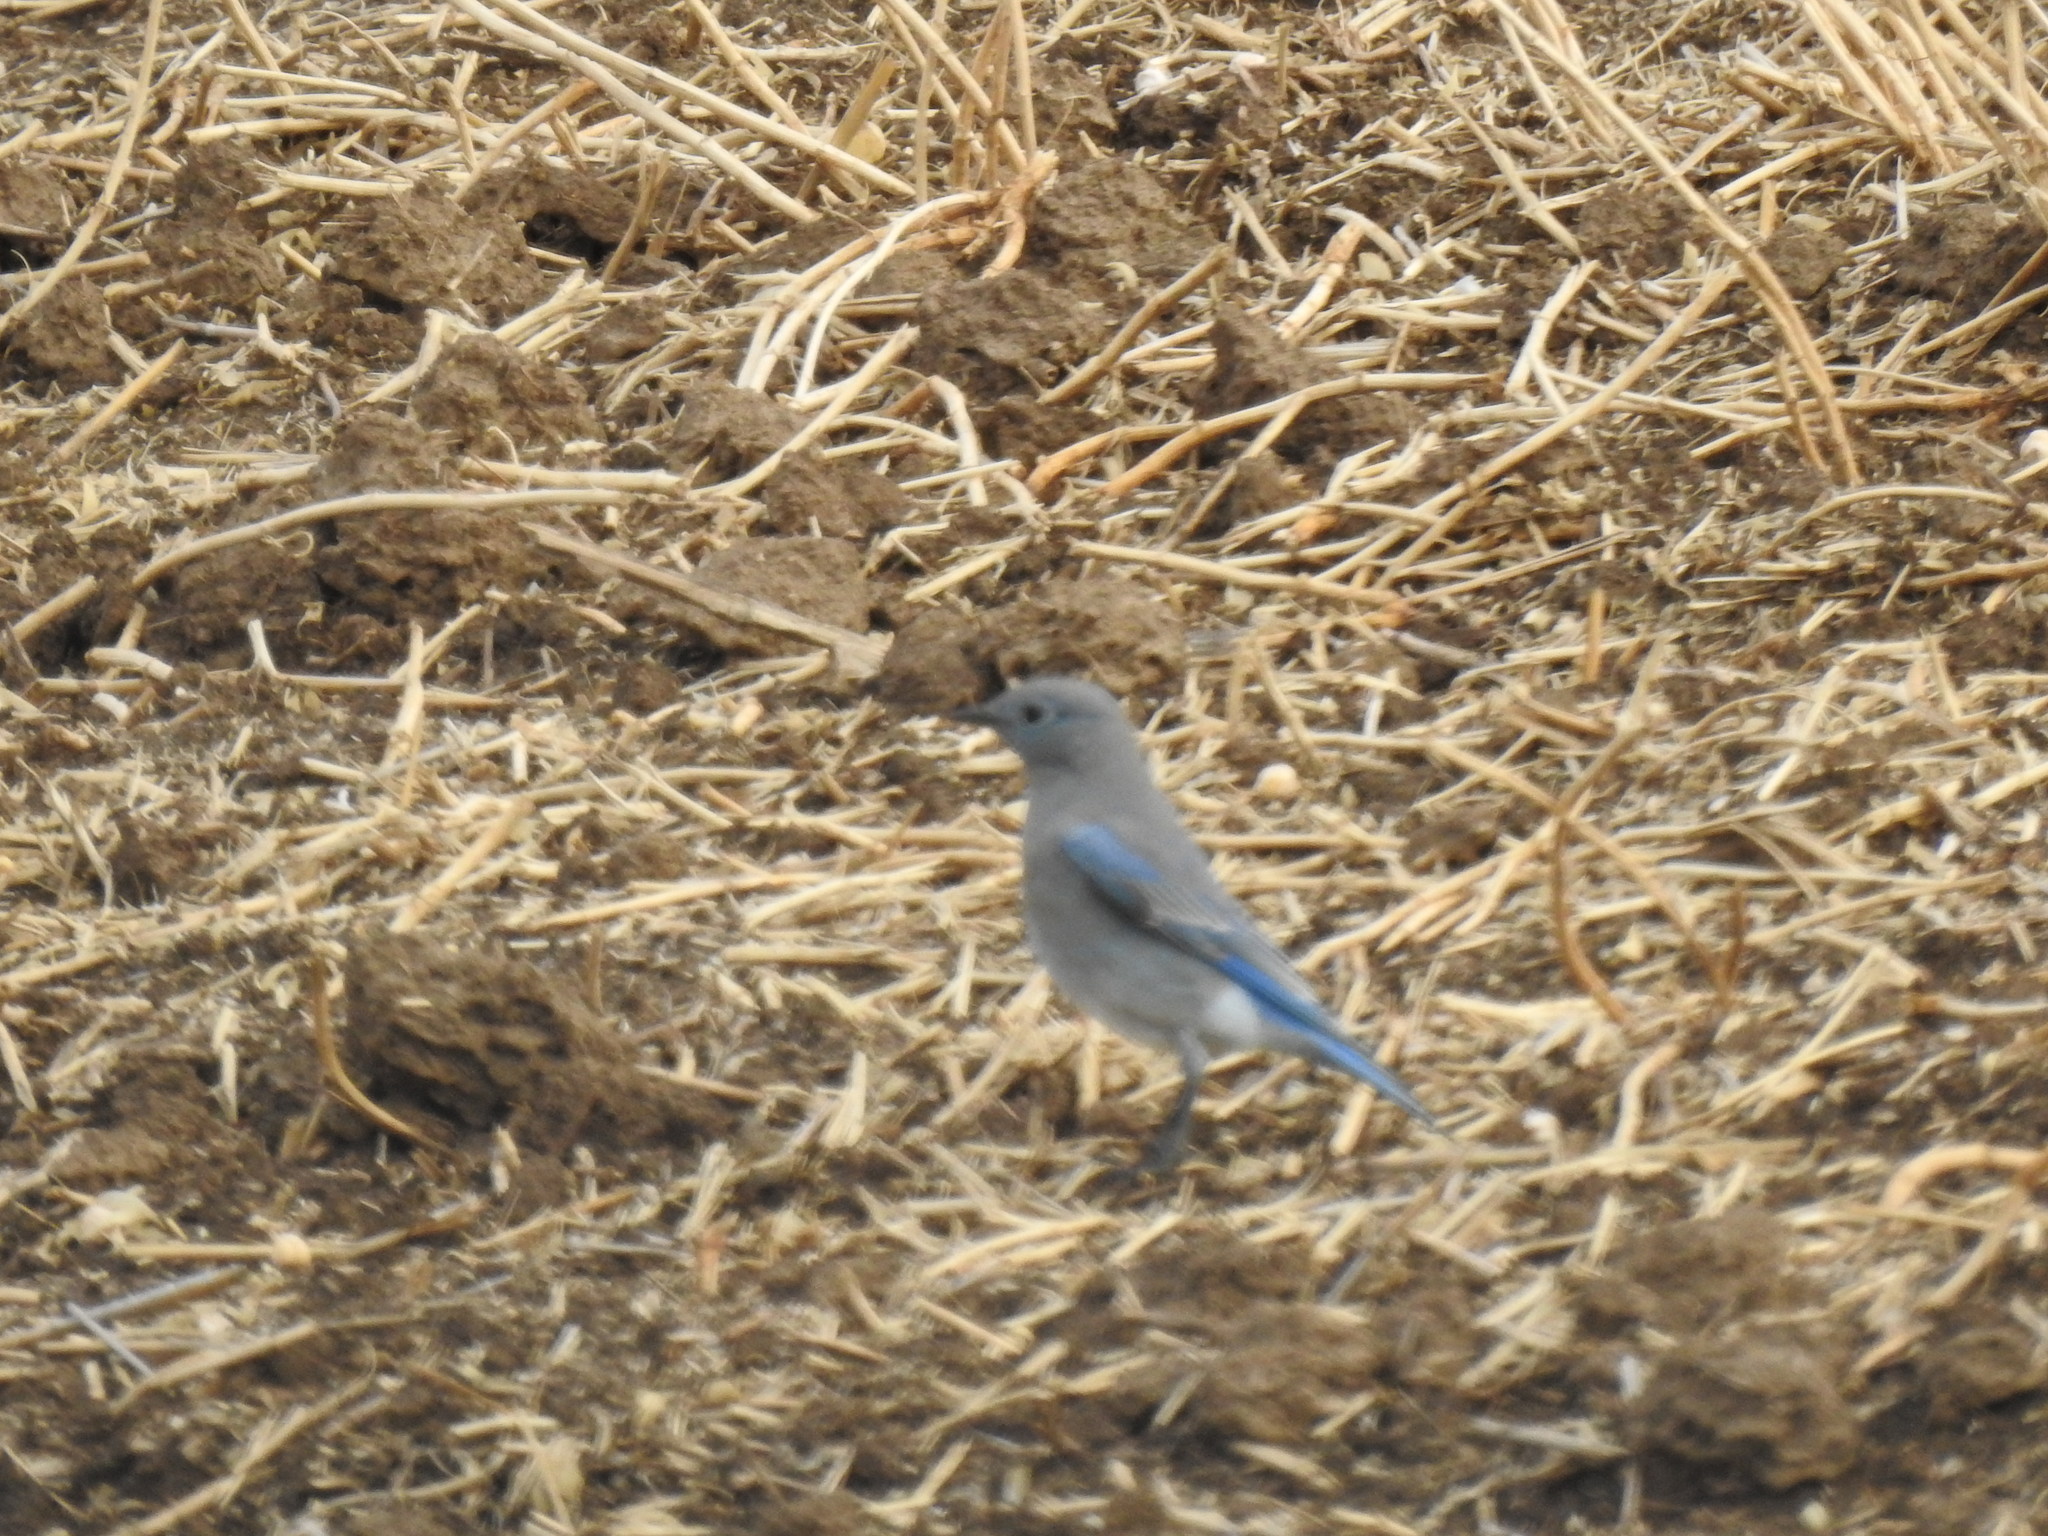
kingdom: Animalia
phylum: Chordata
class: Aves
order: Passeriformes
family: Turdidae
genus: Sialia
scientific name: Sialia currucoides
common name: Mountain bluebird
